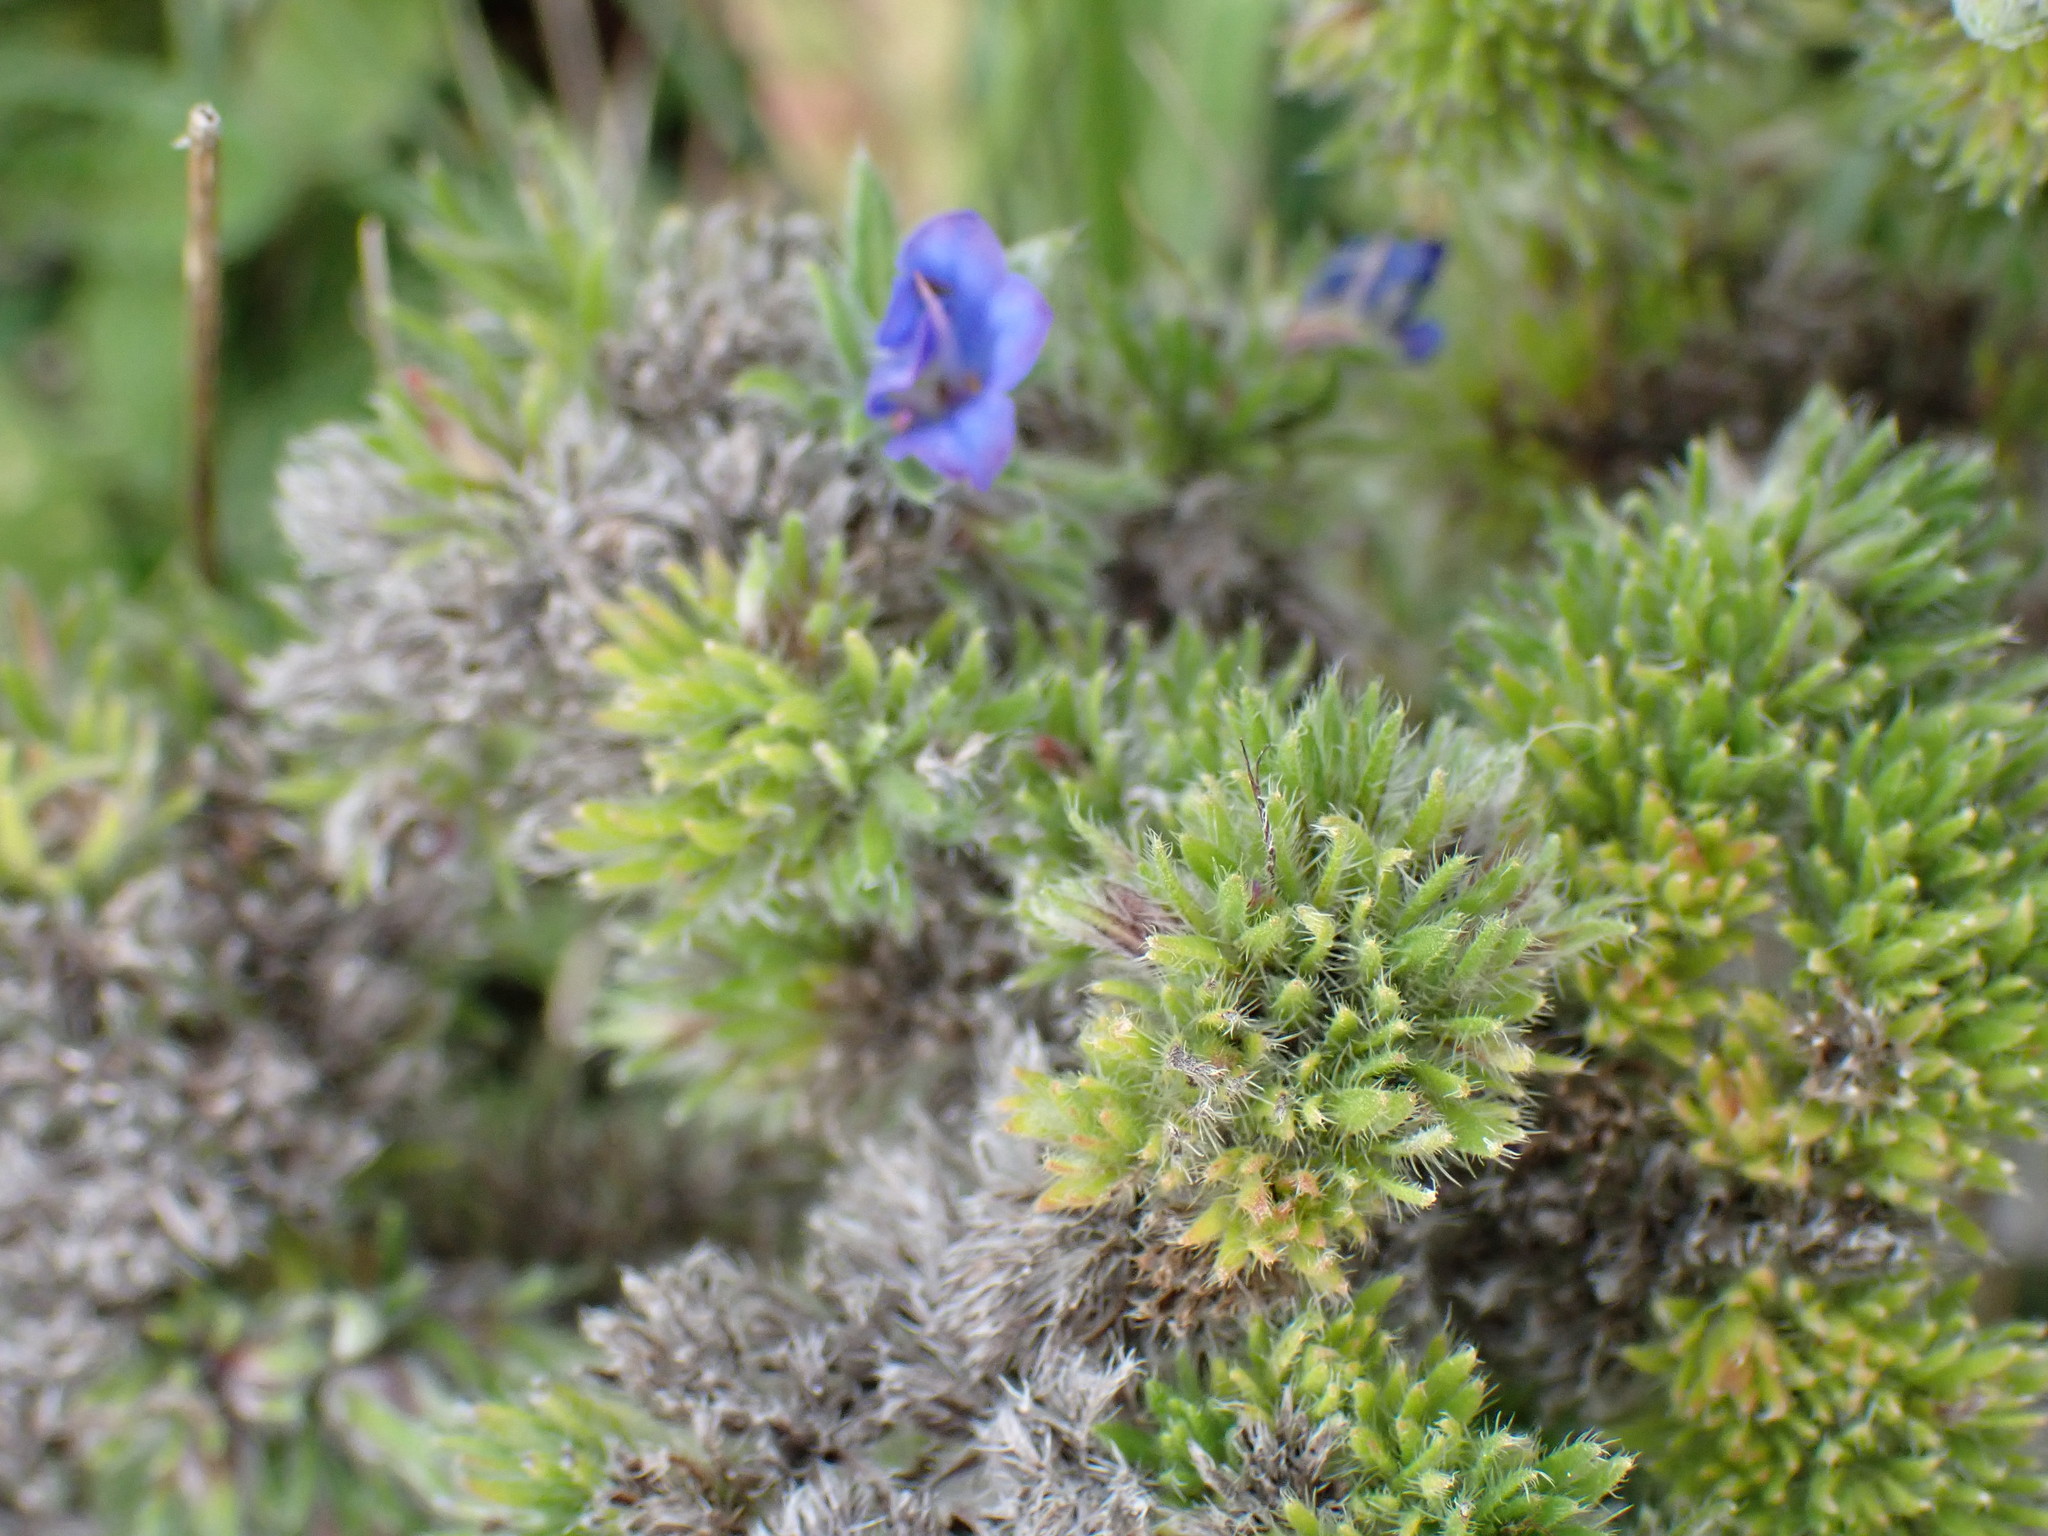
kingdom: Plantae
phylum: Tracheophyta
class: Magnoliopsida
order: Boraginales
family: Boraginaceae
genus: Echium
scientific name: Echium vulgare
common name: Common viper's bugloss
